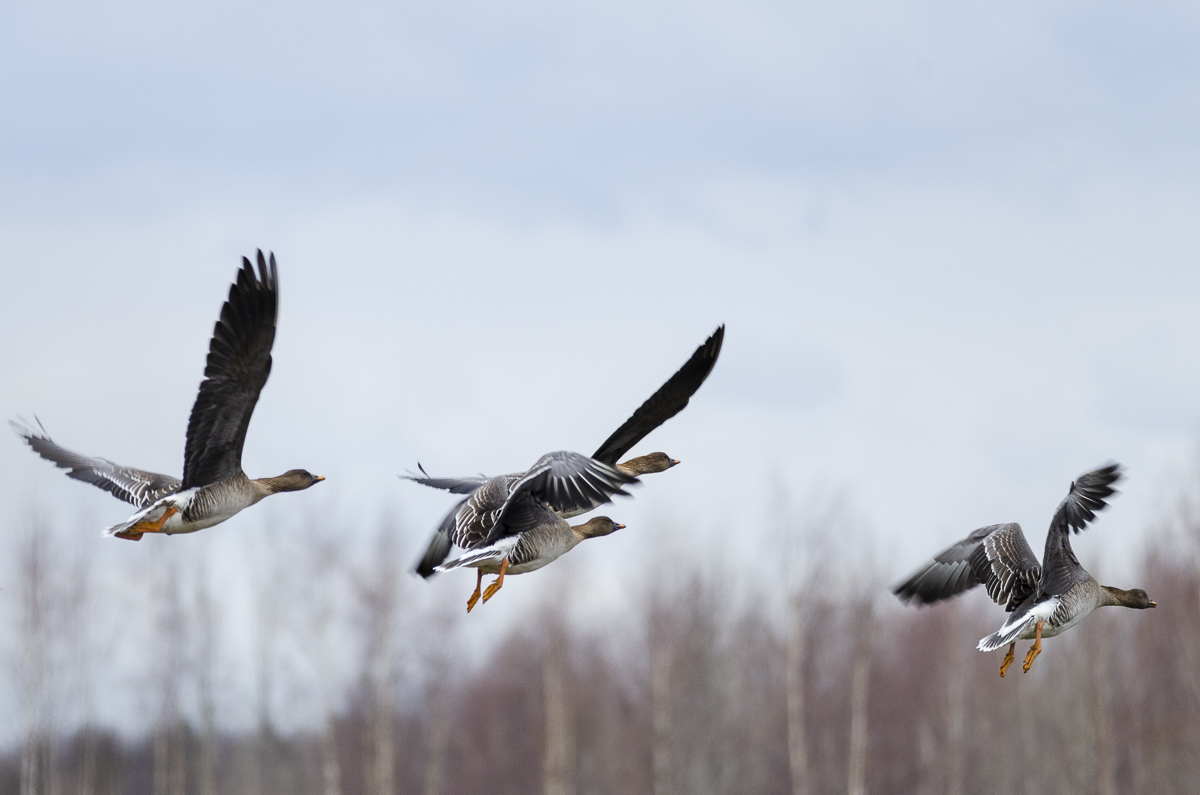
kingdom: Animalia
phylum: Chordata
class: Aves
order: Anseriformes
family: Anatidae
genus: Anser
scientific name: Anser fabalis
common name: Bean goose
